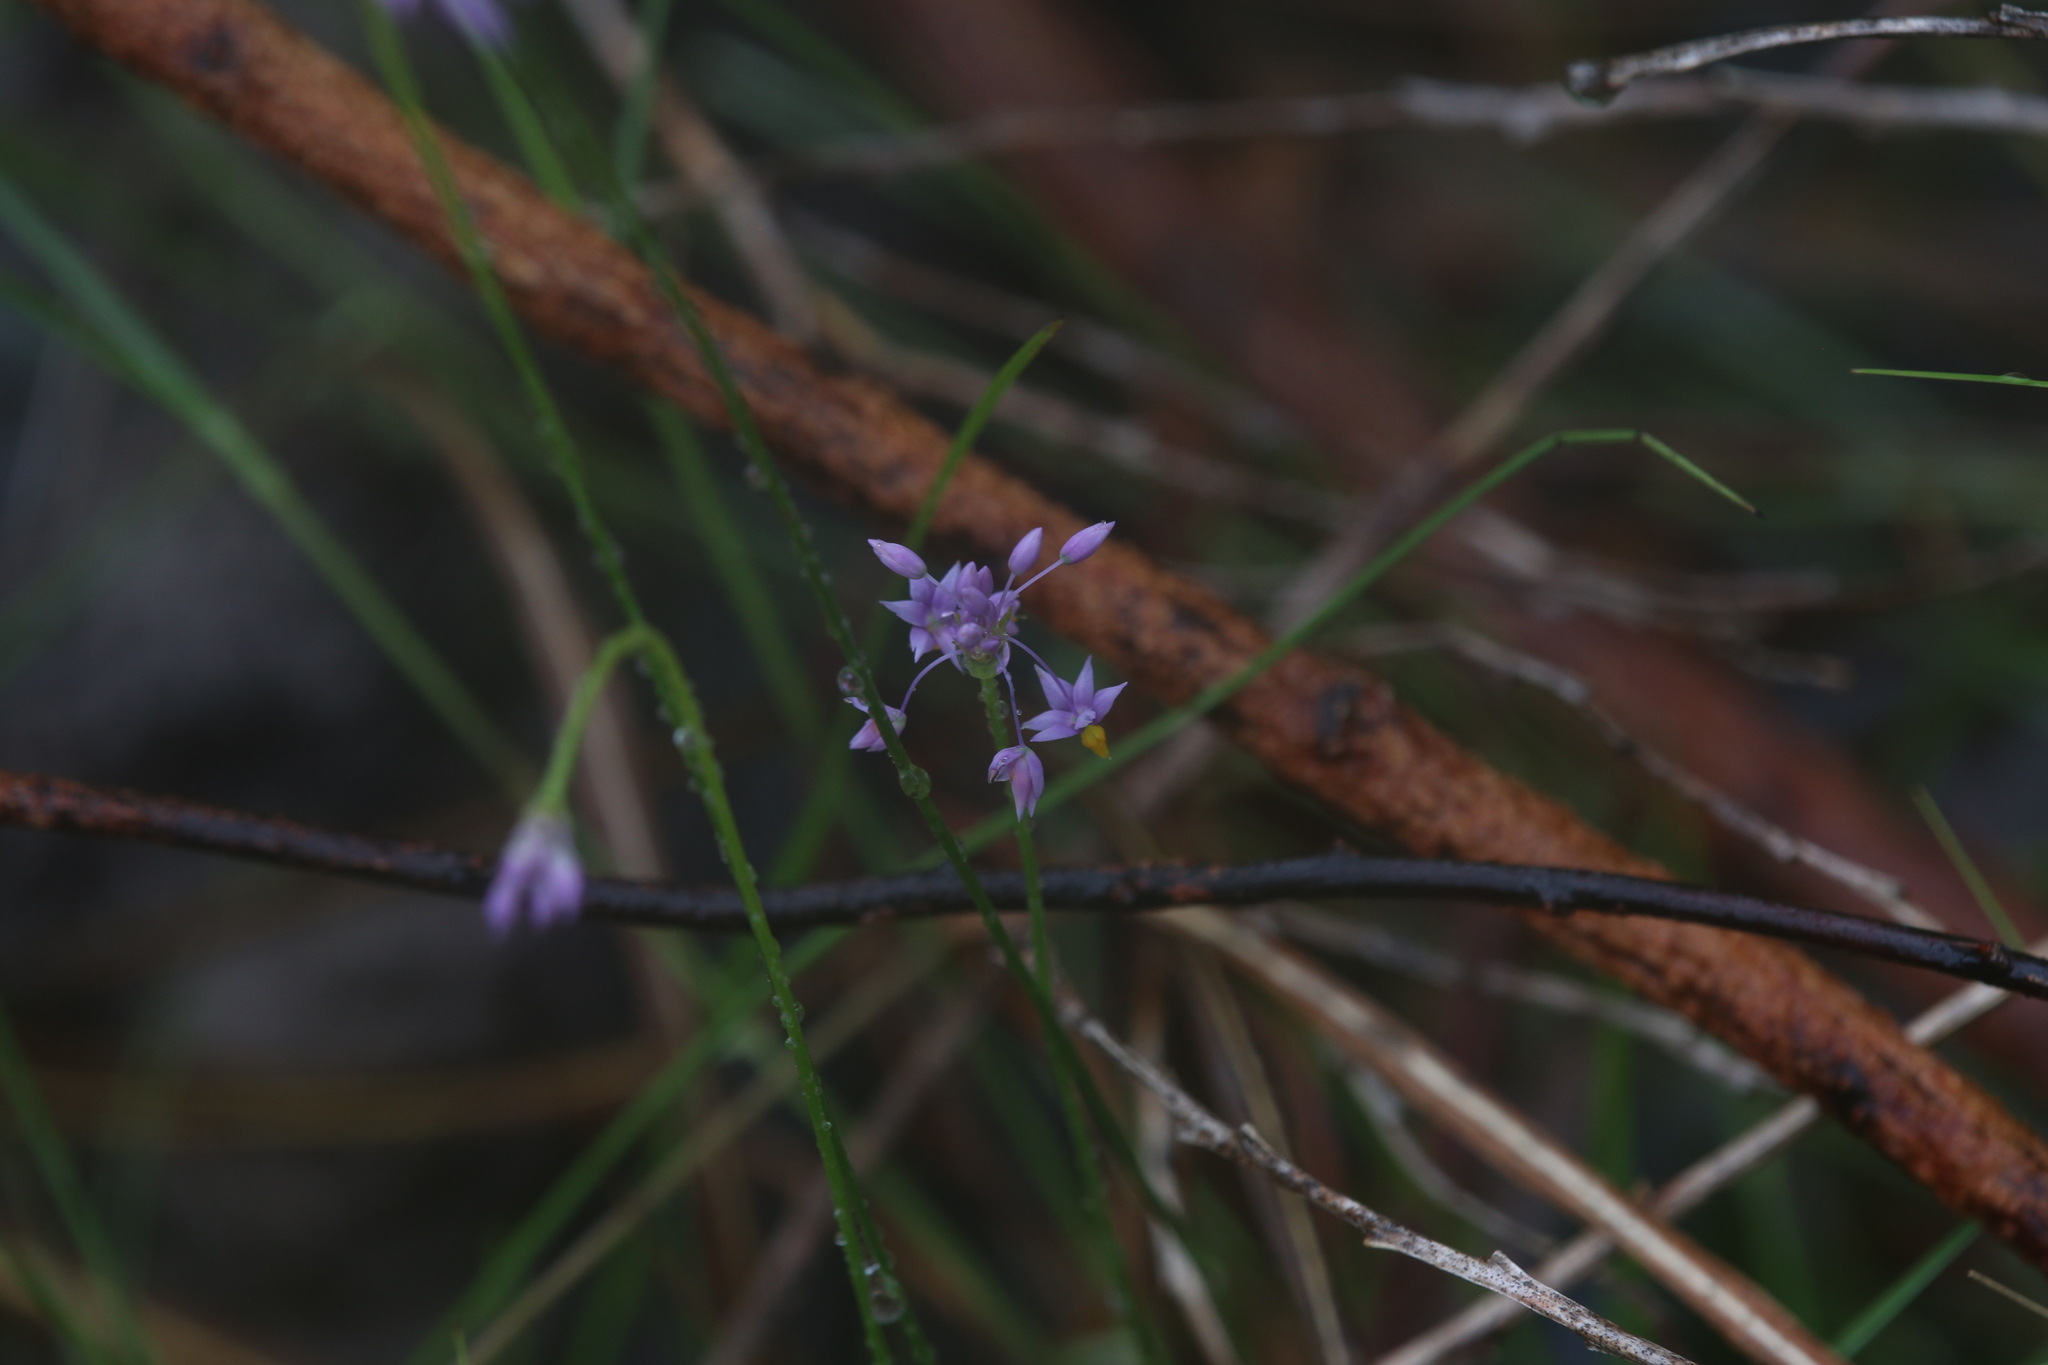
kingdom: Plantae
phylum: Tracheophyta
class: Liliopsida
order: Asparagales
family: Asparagaceae
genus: Sowerbaea
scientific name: Sowerbaea alliacea
